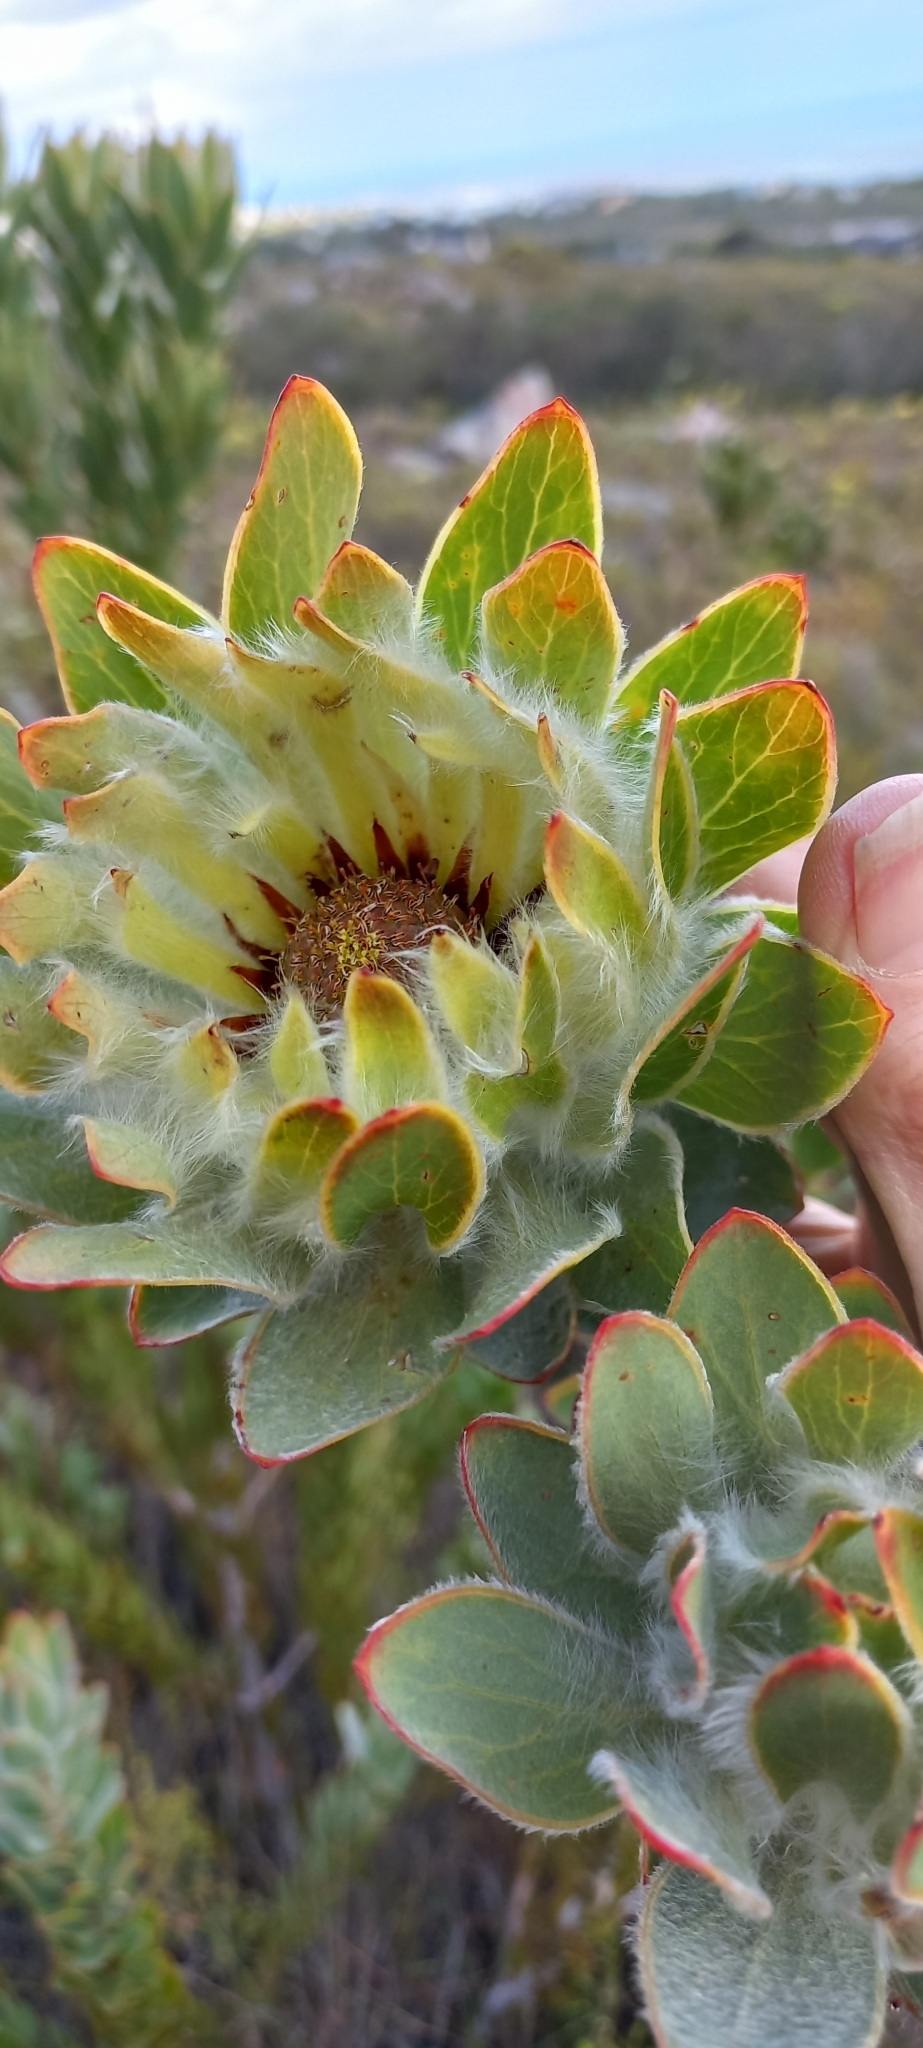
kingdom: Plantae
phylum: Tracheophyta
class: Magnoliopsida
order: Proteales
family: Proteaceae
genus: Leucadendron
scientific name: Leucadendron nervosum
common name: Silky-ruff conebush
